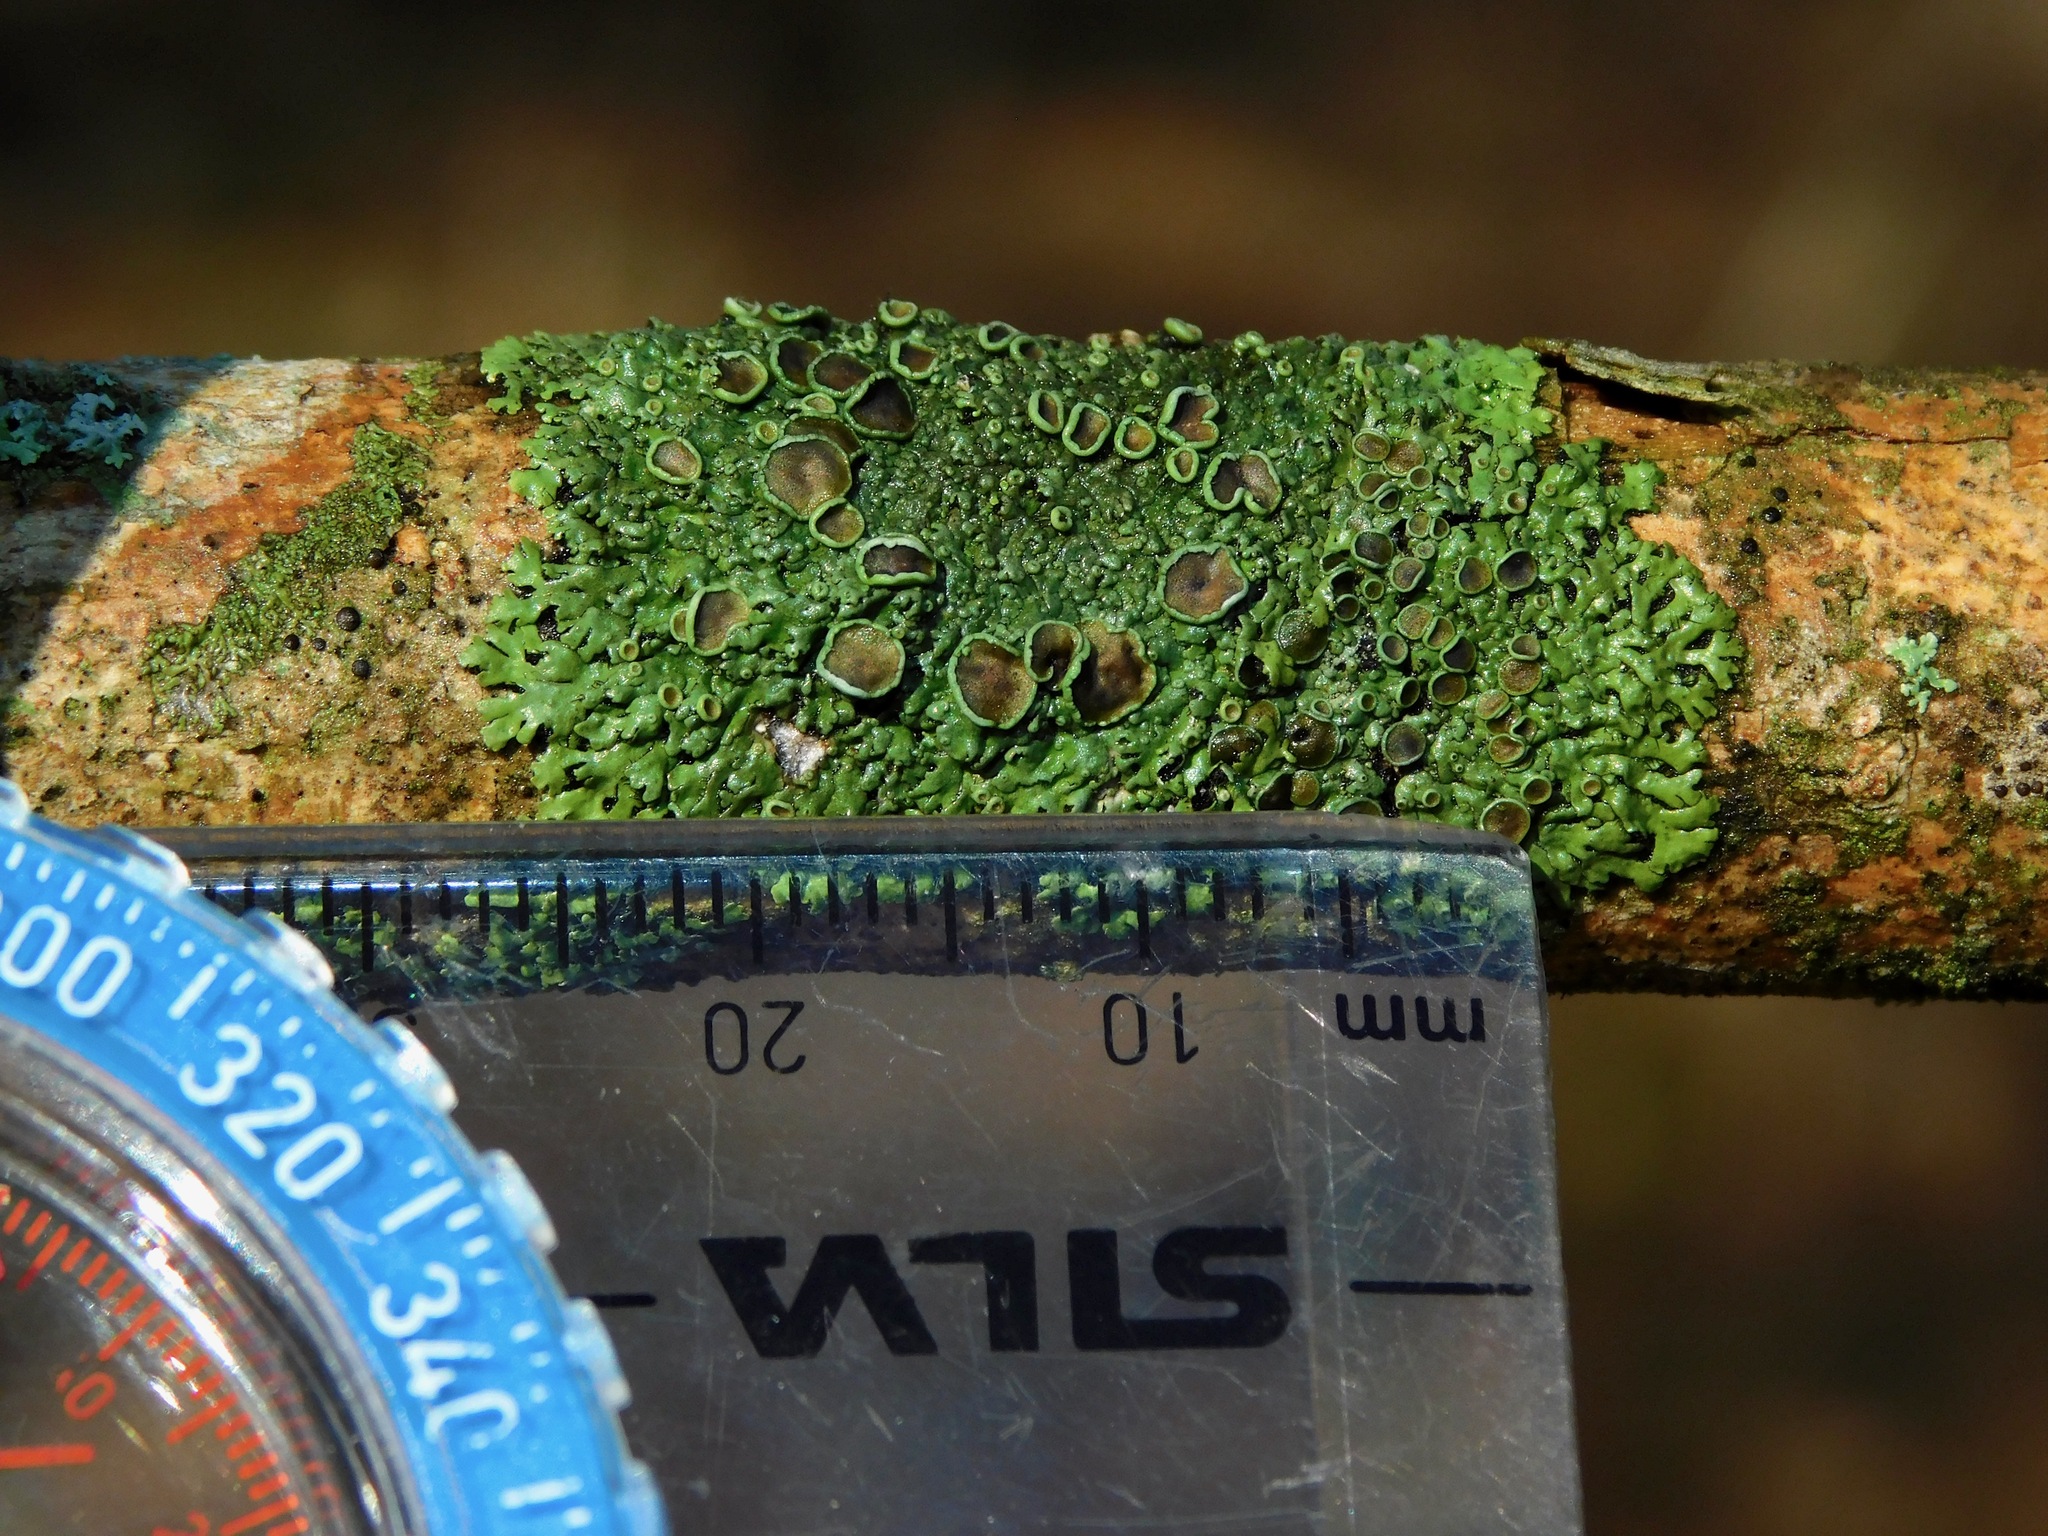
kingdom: Fungi
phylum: Ascomycota
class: Lecanoromycetes
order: Caliciales
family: Physciaceae
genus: Phaeophyscia
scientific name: Phaeophyscia ciliata
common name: Smooth shadow lichen
